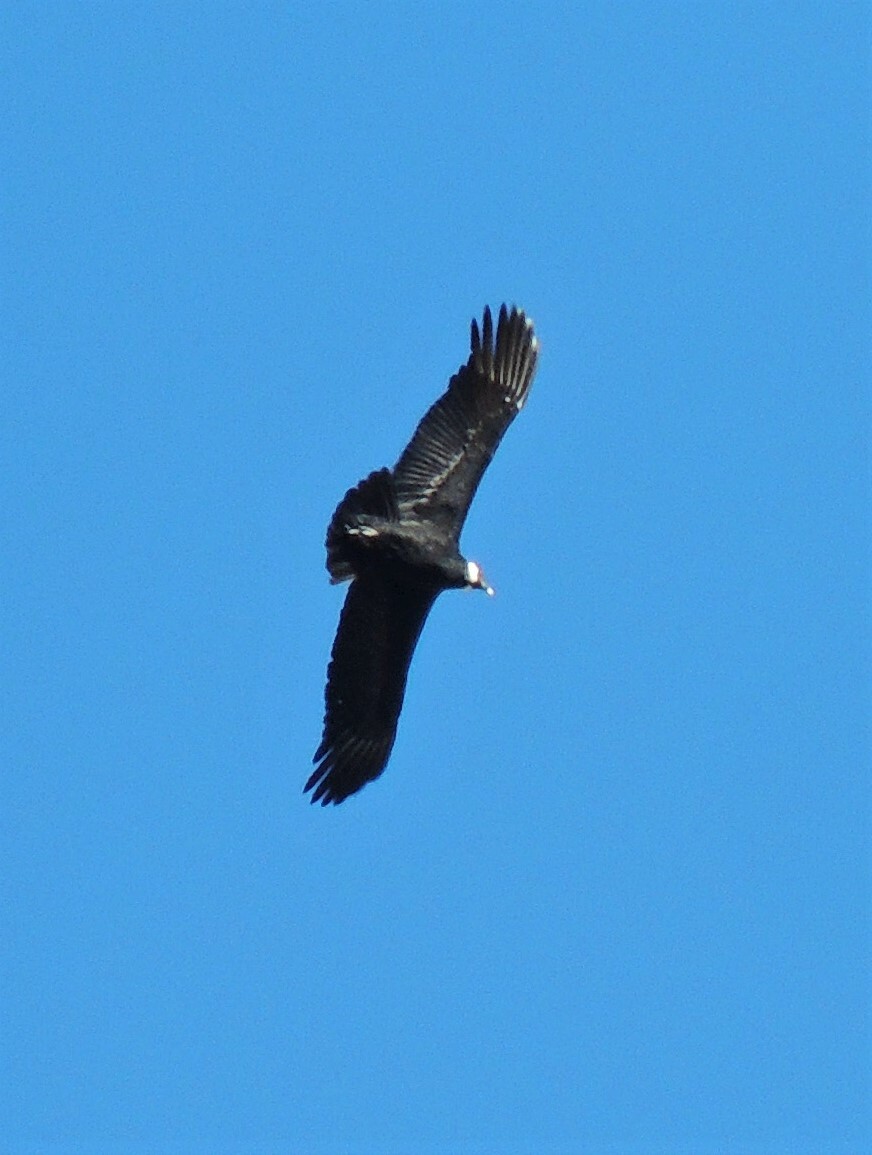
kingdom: Animalia
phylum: Chordata
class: Aves
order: Accipitriformes
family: Cathartidae
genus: Vultur
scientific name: Vultur gryphus
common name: Andean condor
